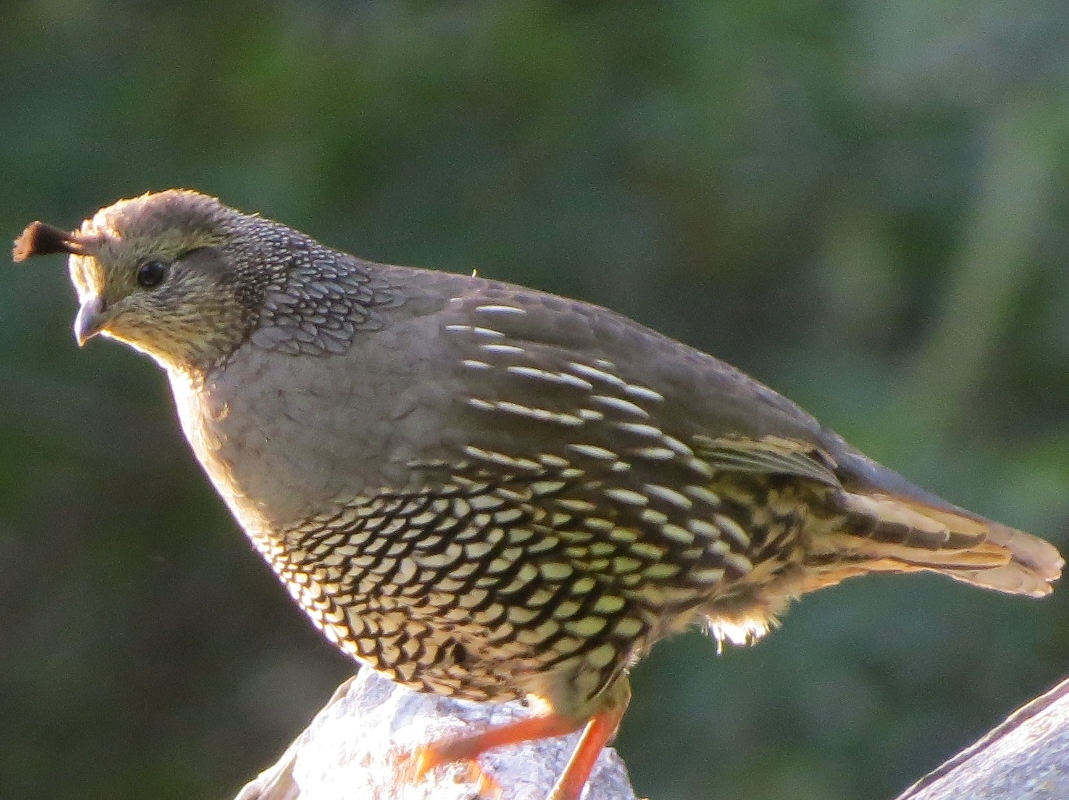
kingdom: Animalia
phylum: Chordata
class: Aves
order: Galliformes
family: Odontophoridae
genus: Callipepla
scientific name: Callipepla californica
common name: California quail
